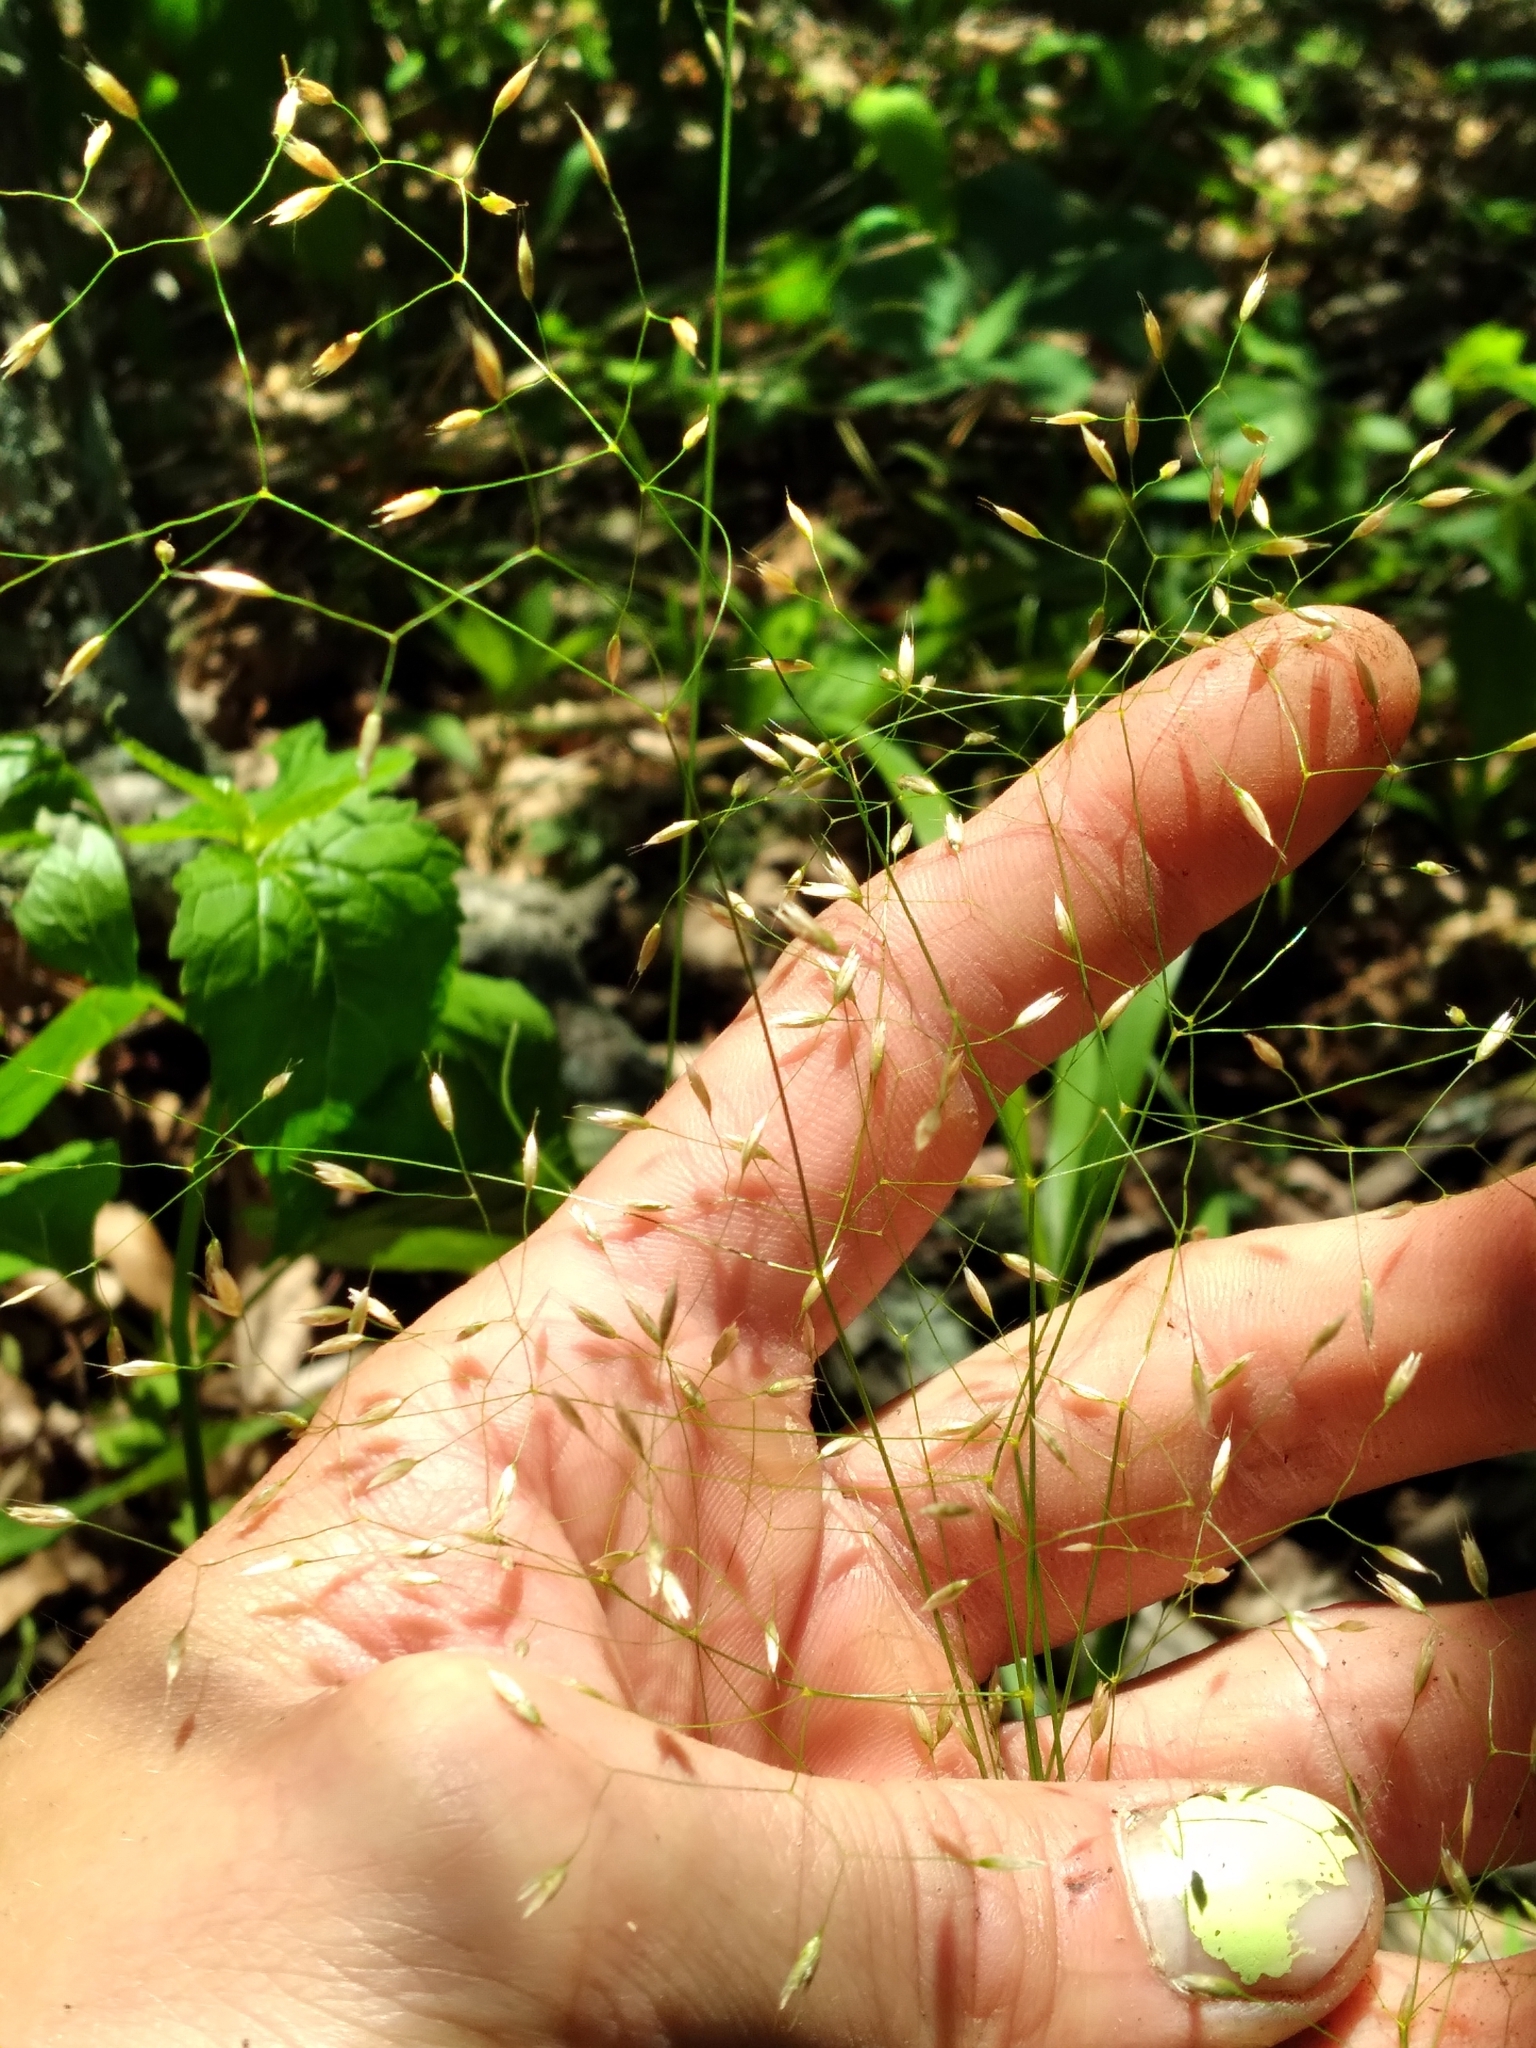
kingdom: Plantae
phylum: Tracheophyta
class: Liliopsida
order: Poales
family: Poaceae
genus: Avenella
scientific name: Avenella flexuosa
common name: Wavy hairgrass
